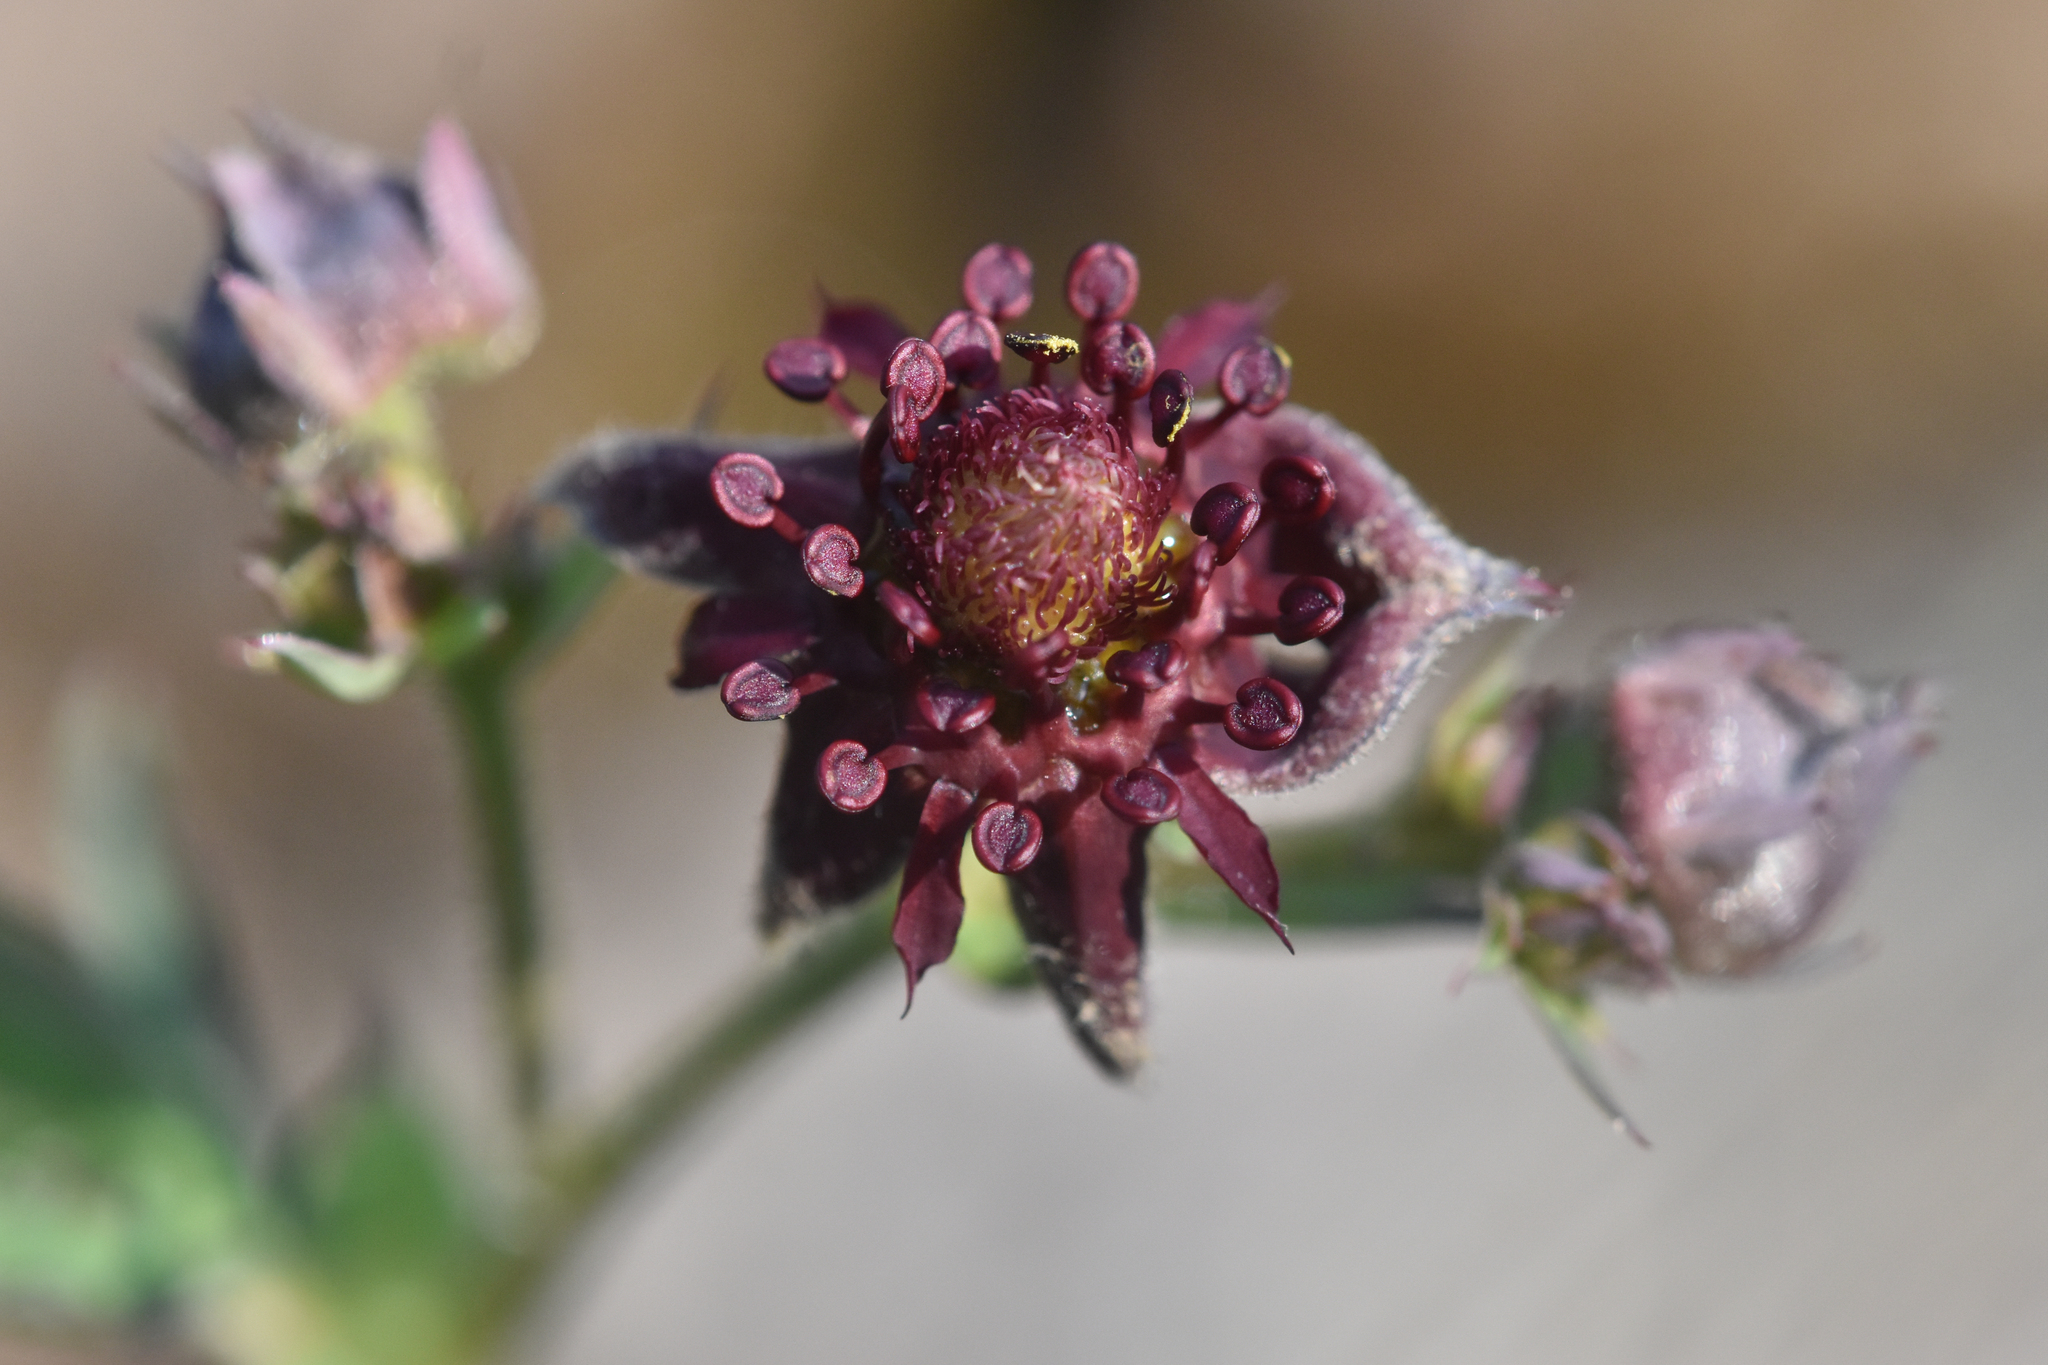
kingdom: Plantae
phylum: Tracheophyta
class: Magnoliopsida
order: Rosales
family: Rosaceae
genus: Comarum
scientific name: Comarum palustre
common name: Marsh cinquefoil
